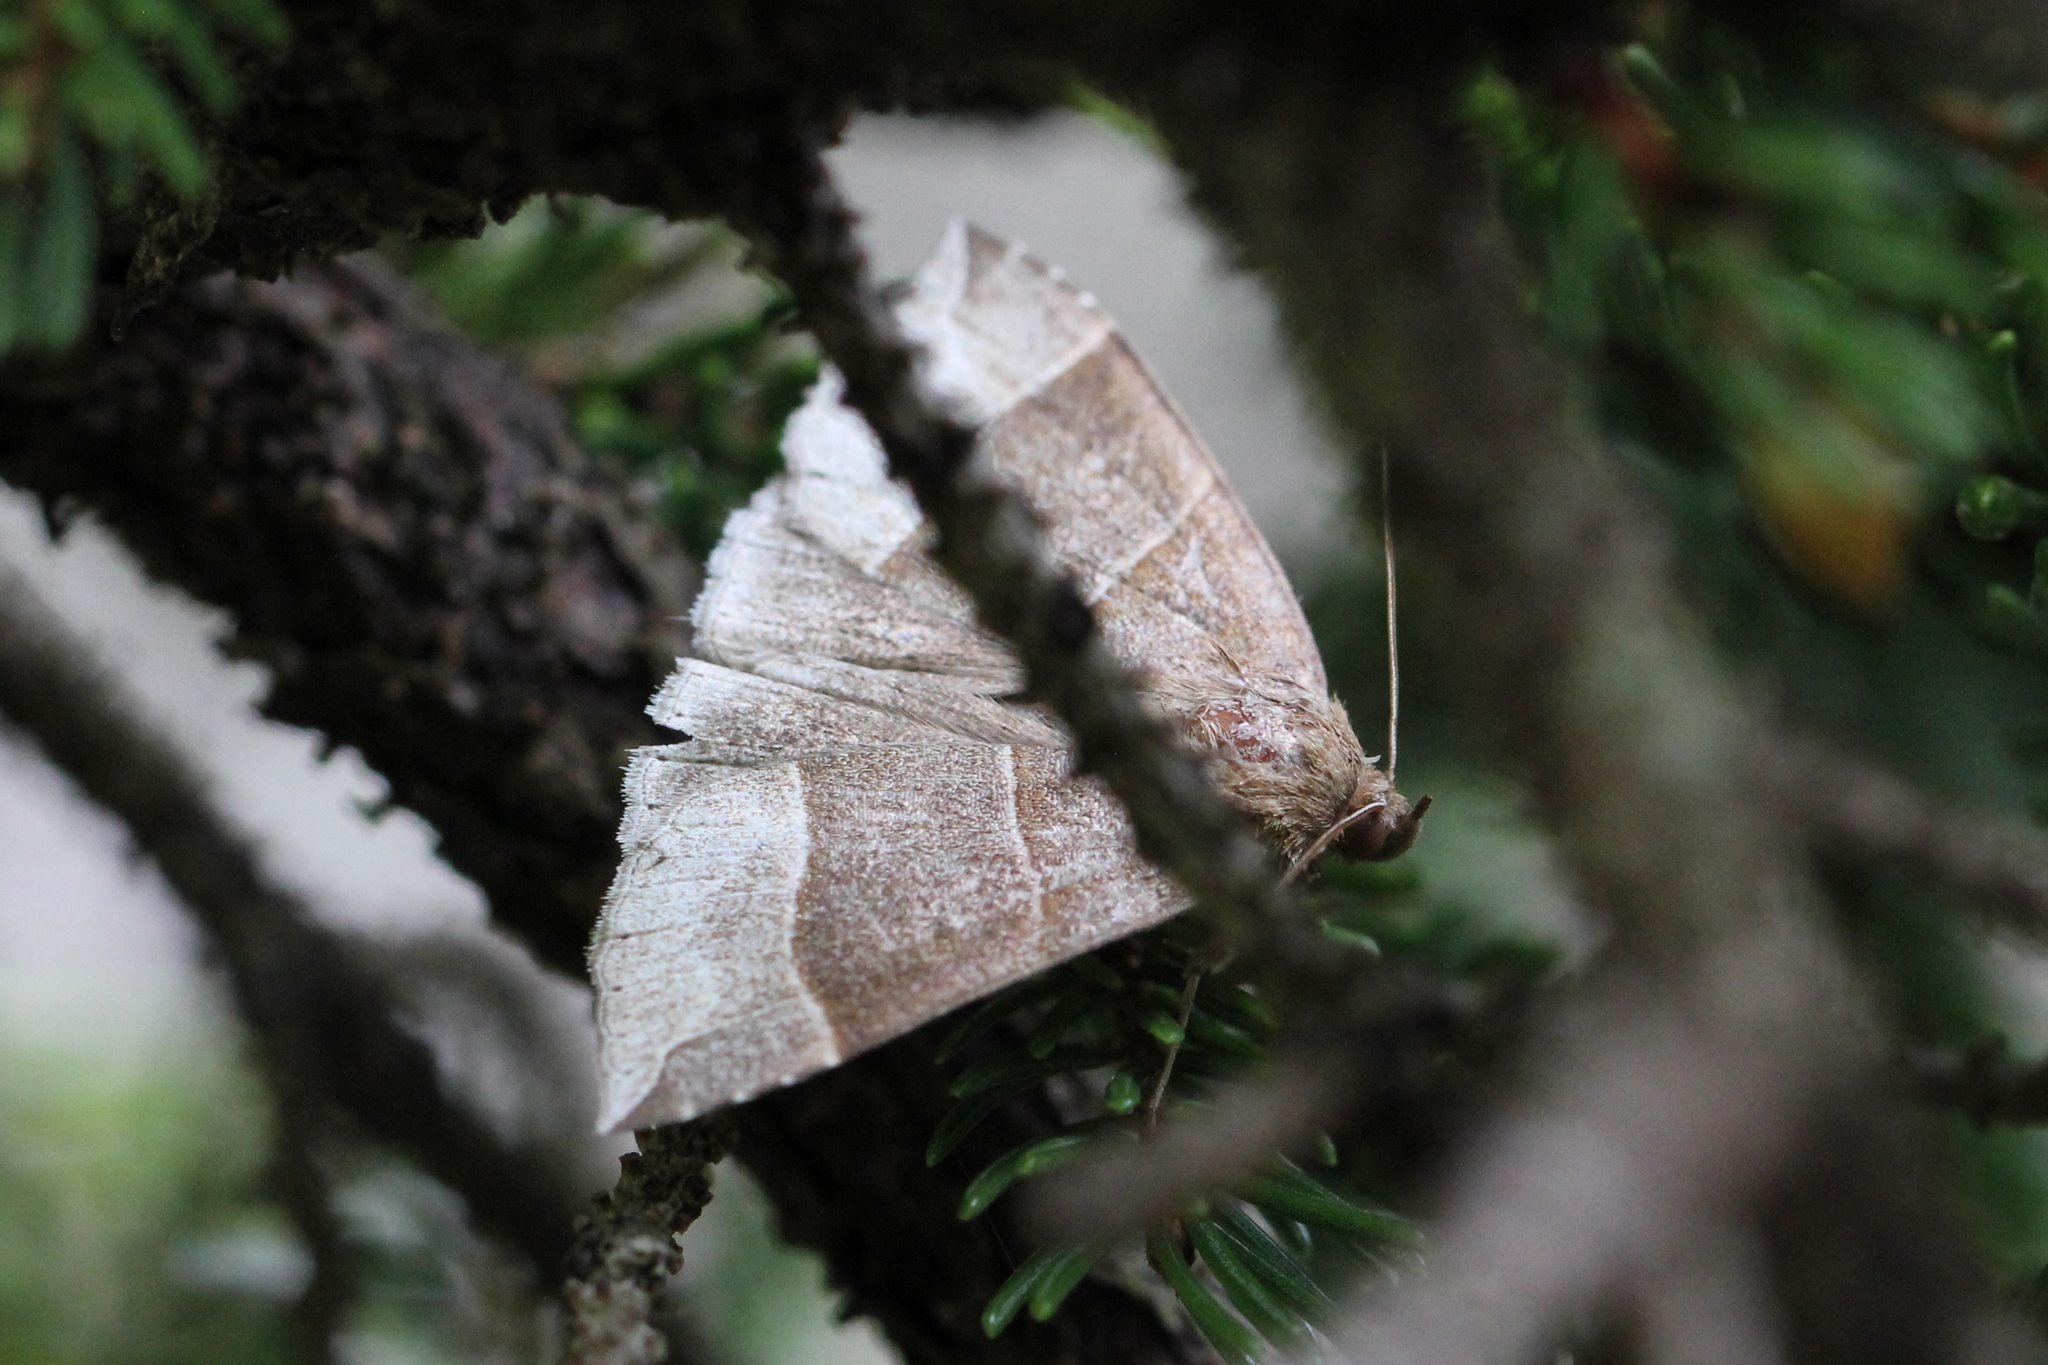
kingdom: Animalia
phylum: Arthropoda
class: Insecta
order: Lepidoptera
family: Erebidae
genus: Parallelia
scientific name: Parallelia bistriaris
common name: Maple looper moth
